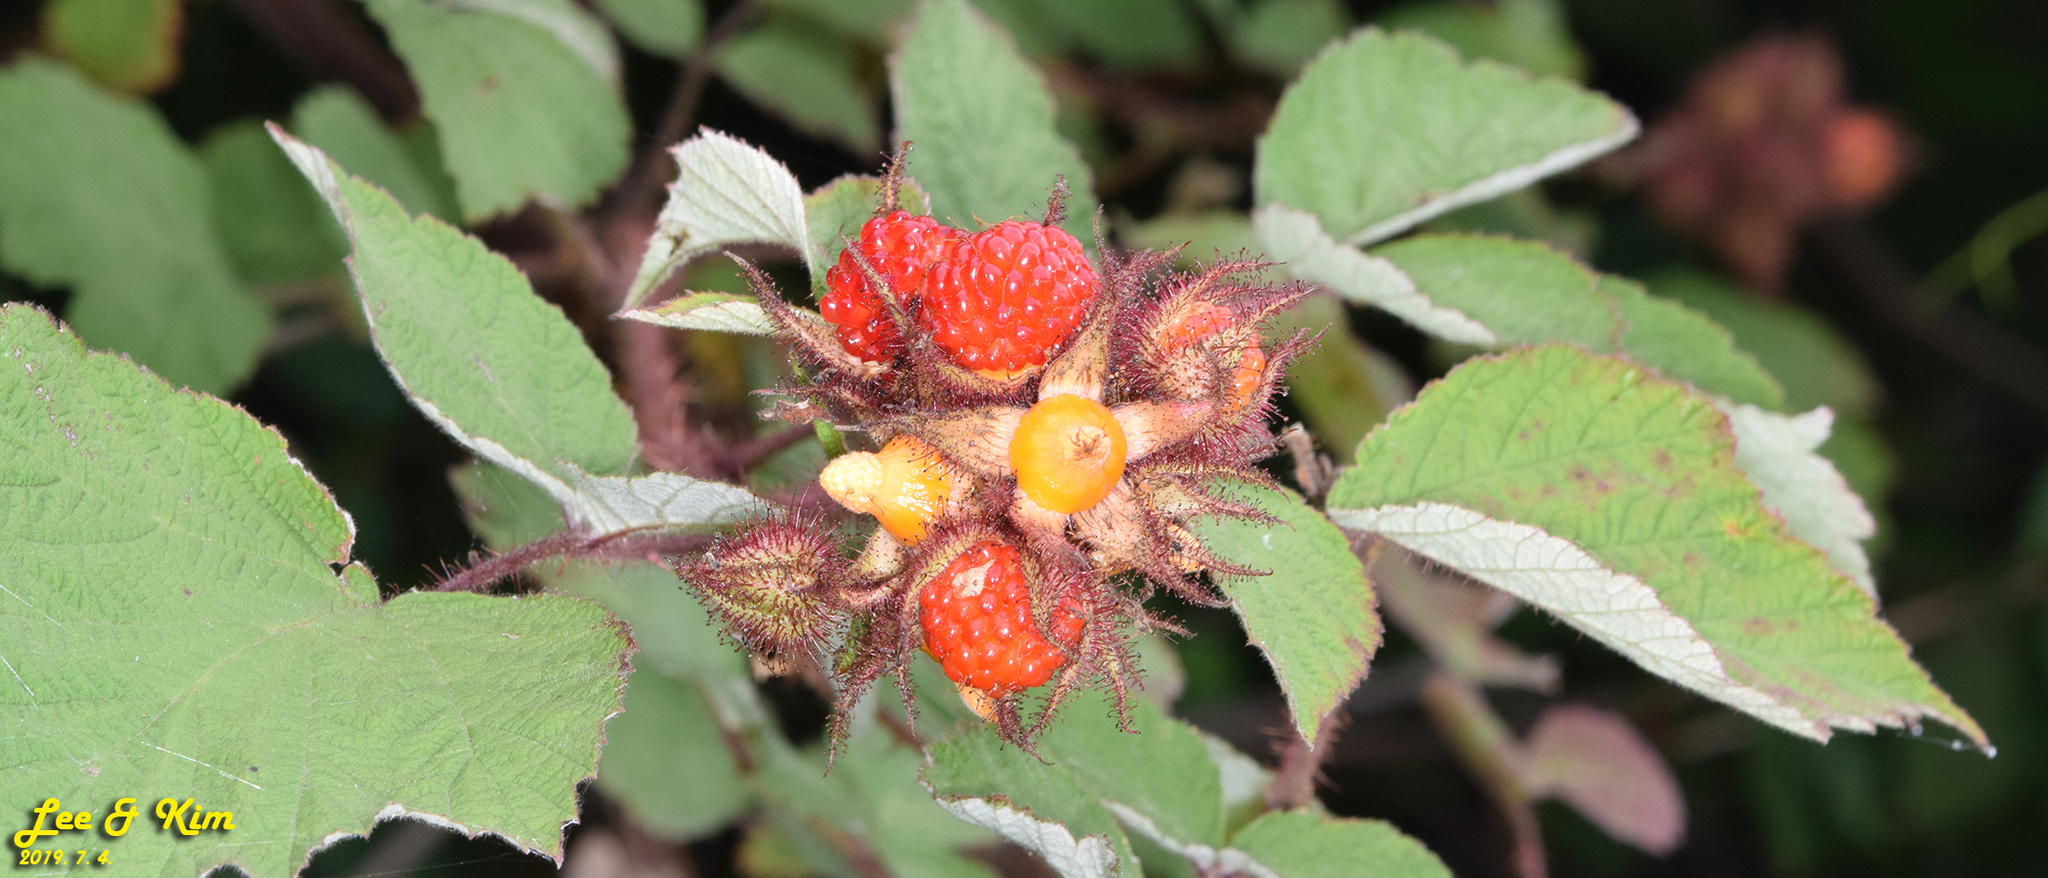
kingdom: Plantae
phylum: Tracheophyta
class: Magnoliopsida
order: Rosales
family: Rosaceae
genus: Rubus
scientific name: Rubus phoenicolasius
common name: Japanese wineberry
